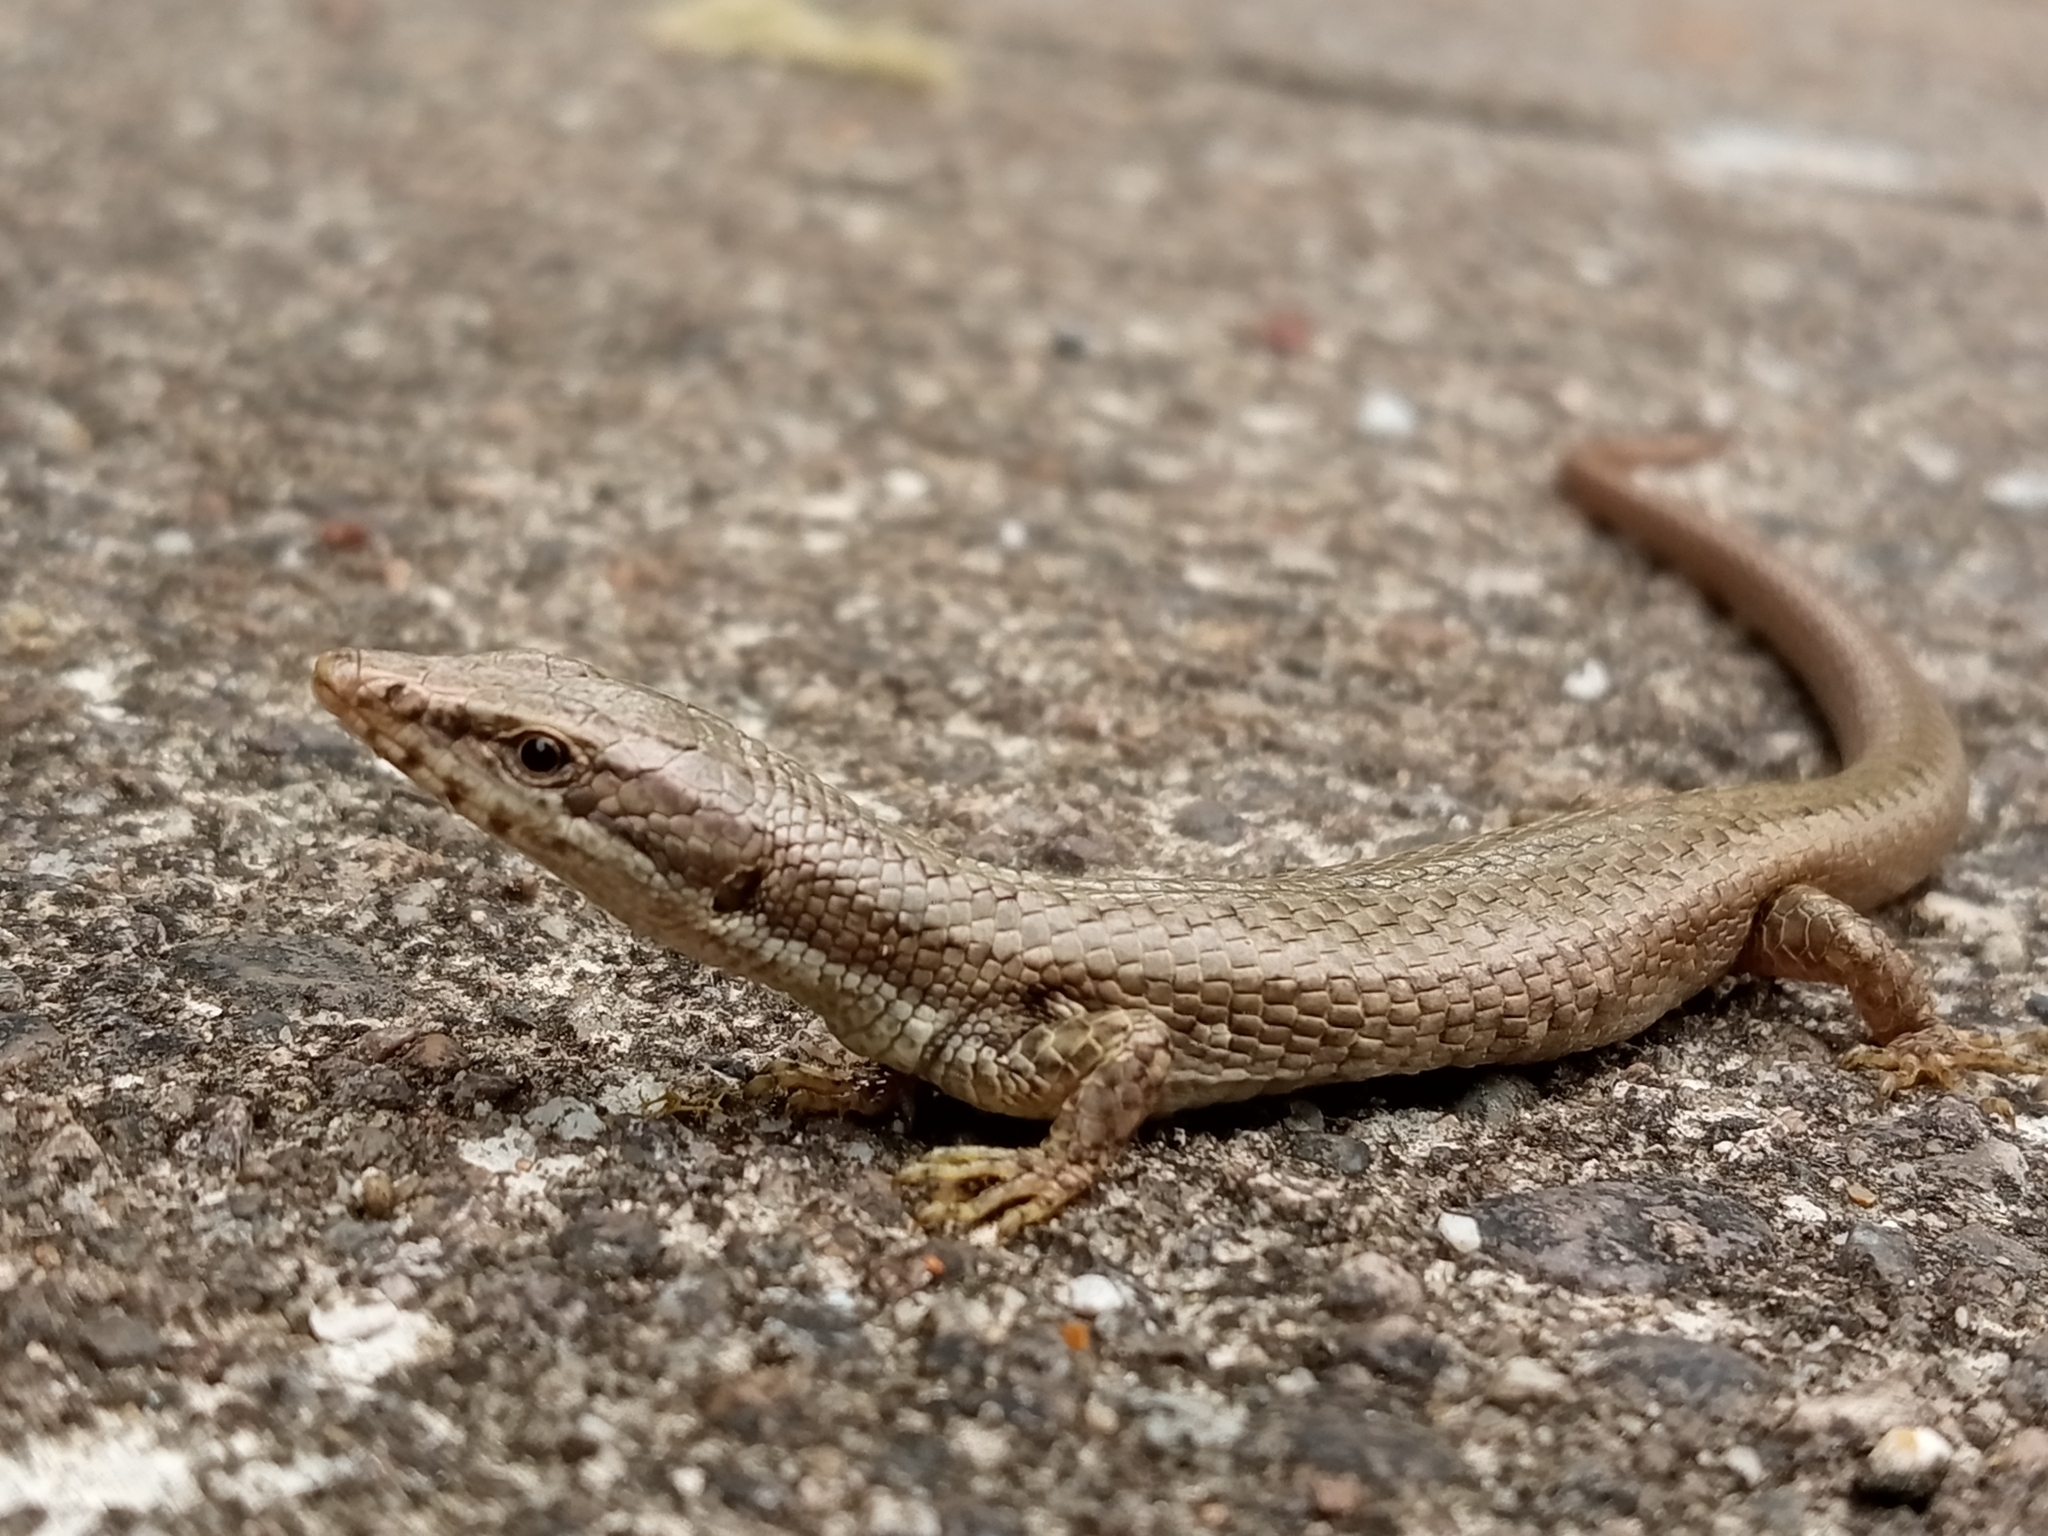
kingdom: Animalia
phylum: Chordata
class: Squamata
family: Gymnophthalmidae
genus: Anadia
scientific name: Anadia rhombifera
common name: Rhombifer anadia
